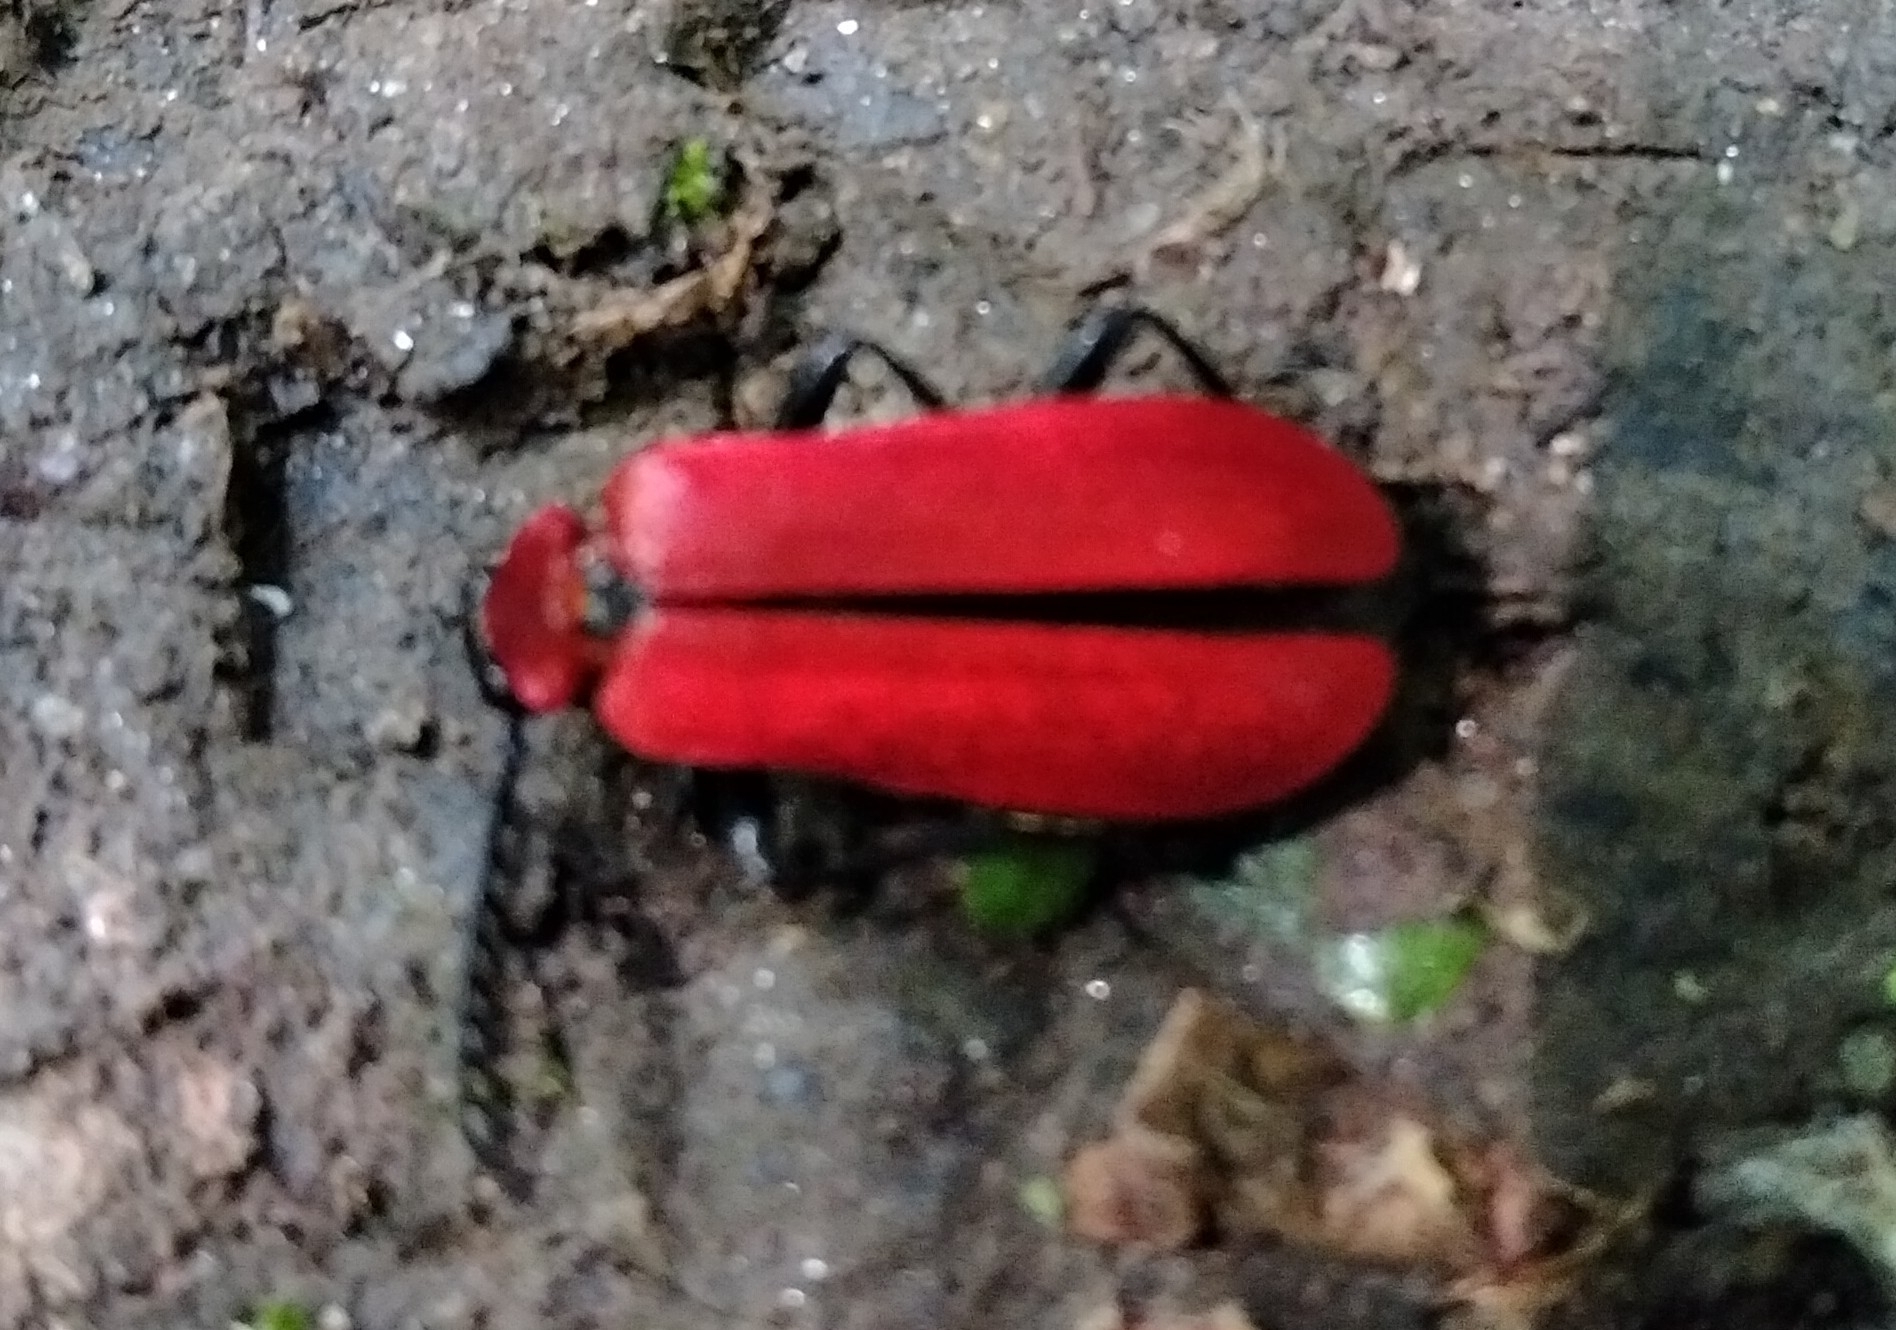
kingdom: Animalia
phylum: Arthropoda
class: Insecta
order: Coleoptera
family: Pyrochroidae
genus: Pyrochroa
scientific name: Pyrochroa coccinea
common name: Black-headed cardinal beetle
